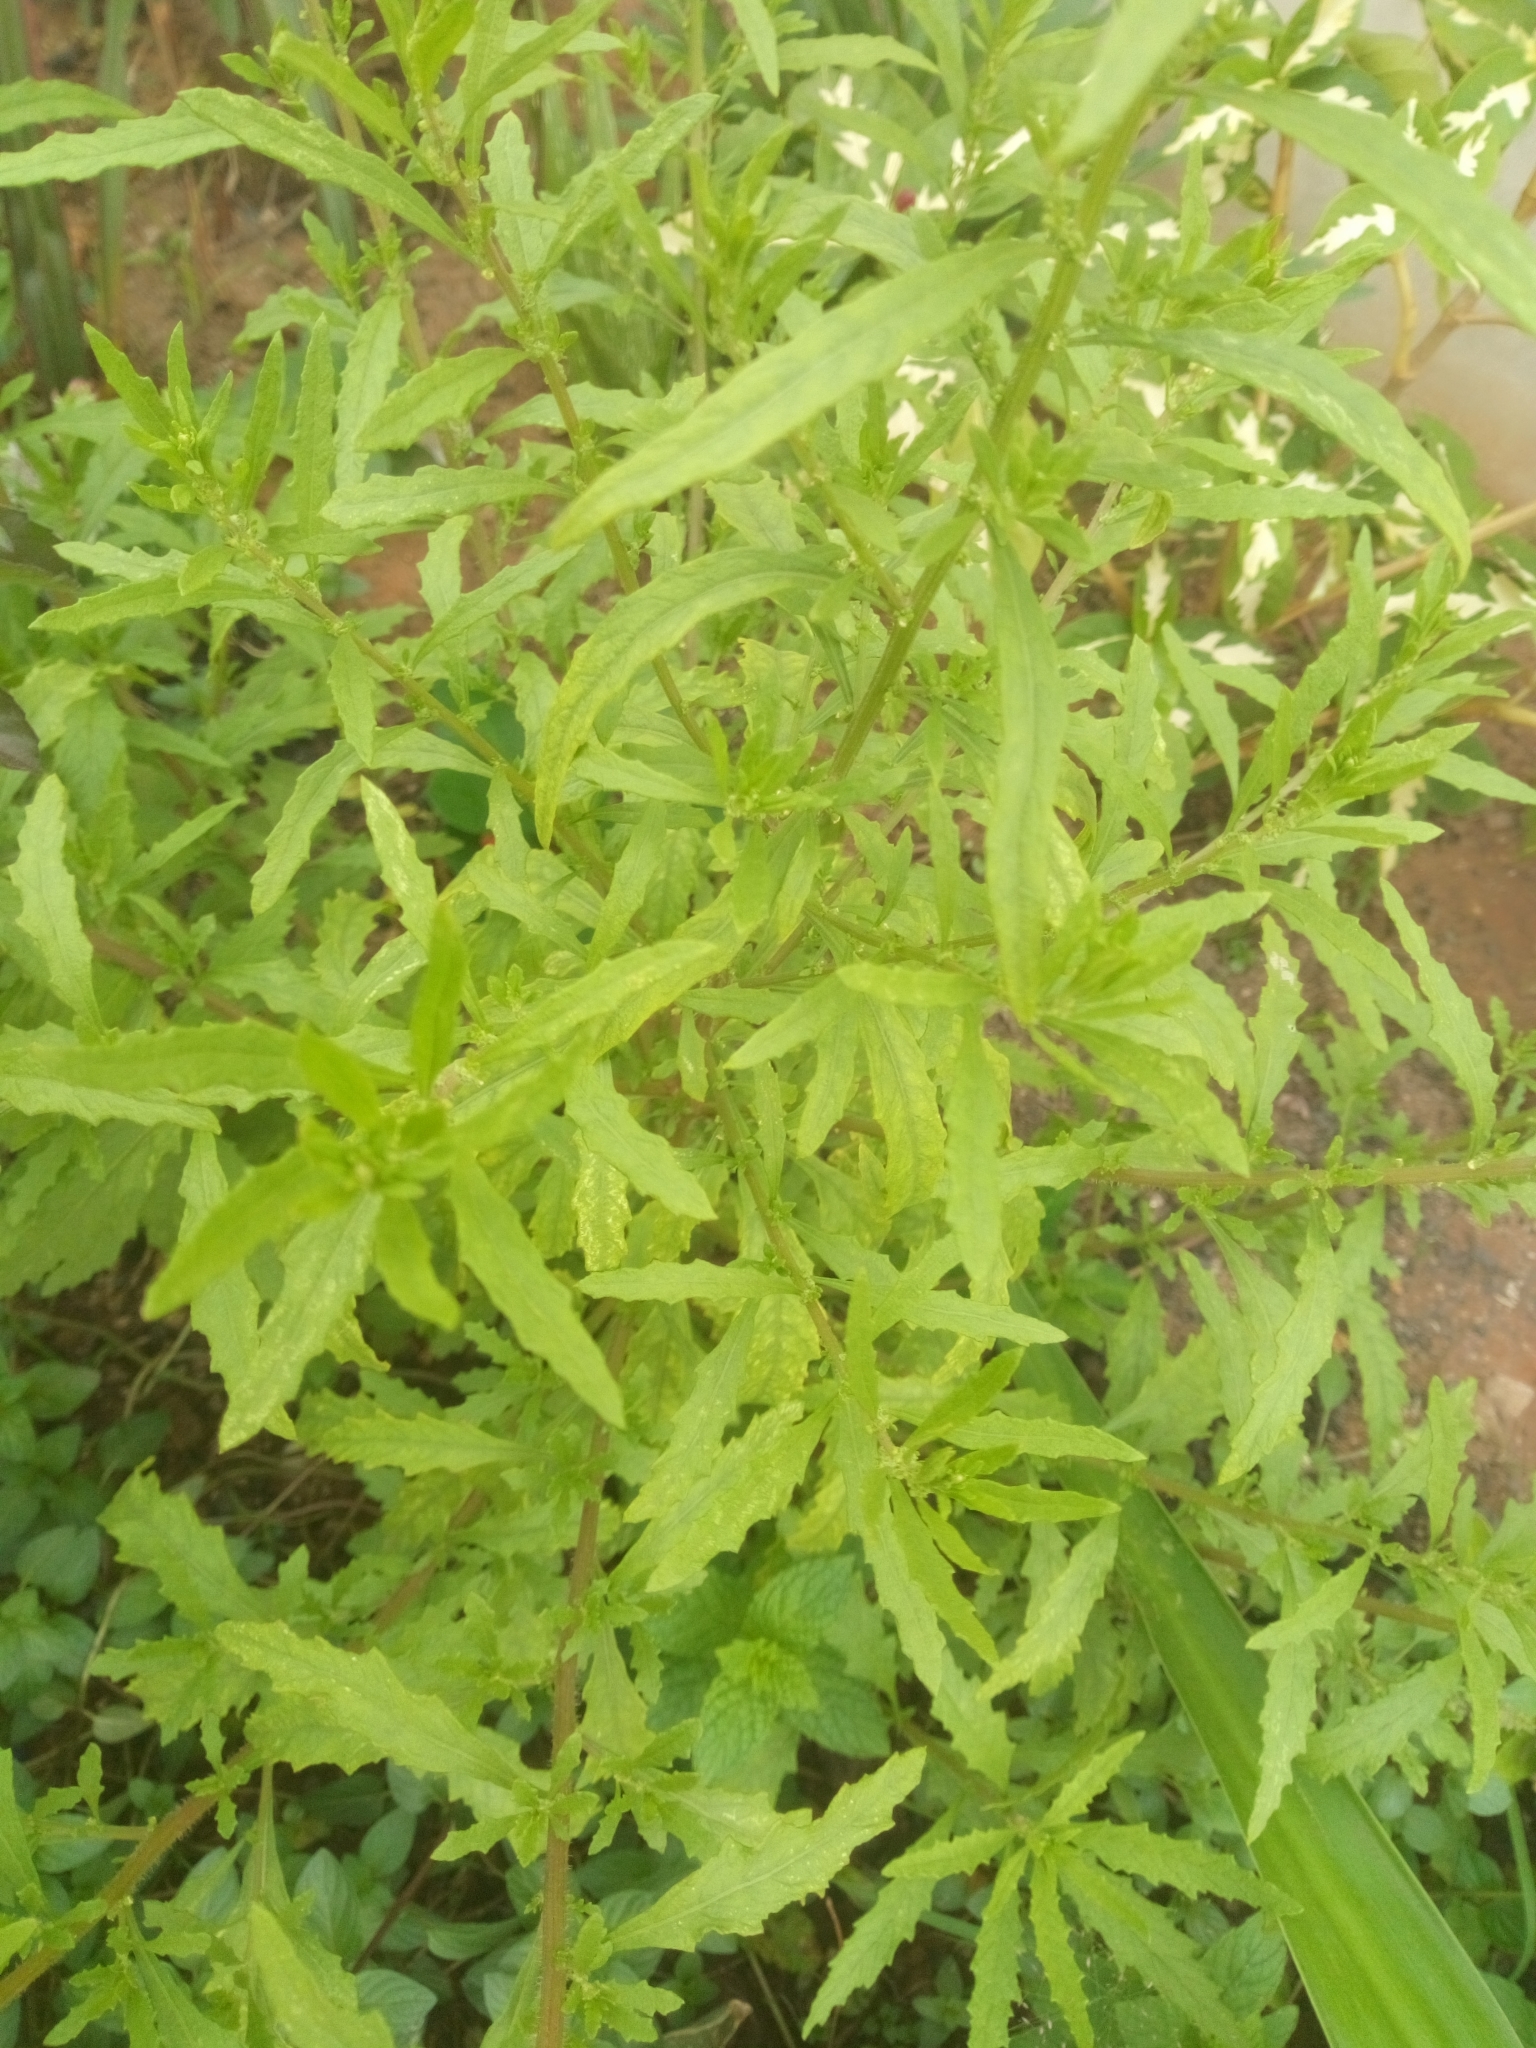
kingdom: Plantae
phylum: Tracheophyta
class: Magnoliopsida
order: Caryophyllales
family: Amaranthaceae
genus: Dysphania
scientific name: Dysphania ambrosioides
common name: Wormseed
